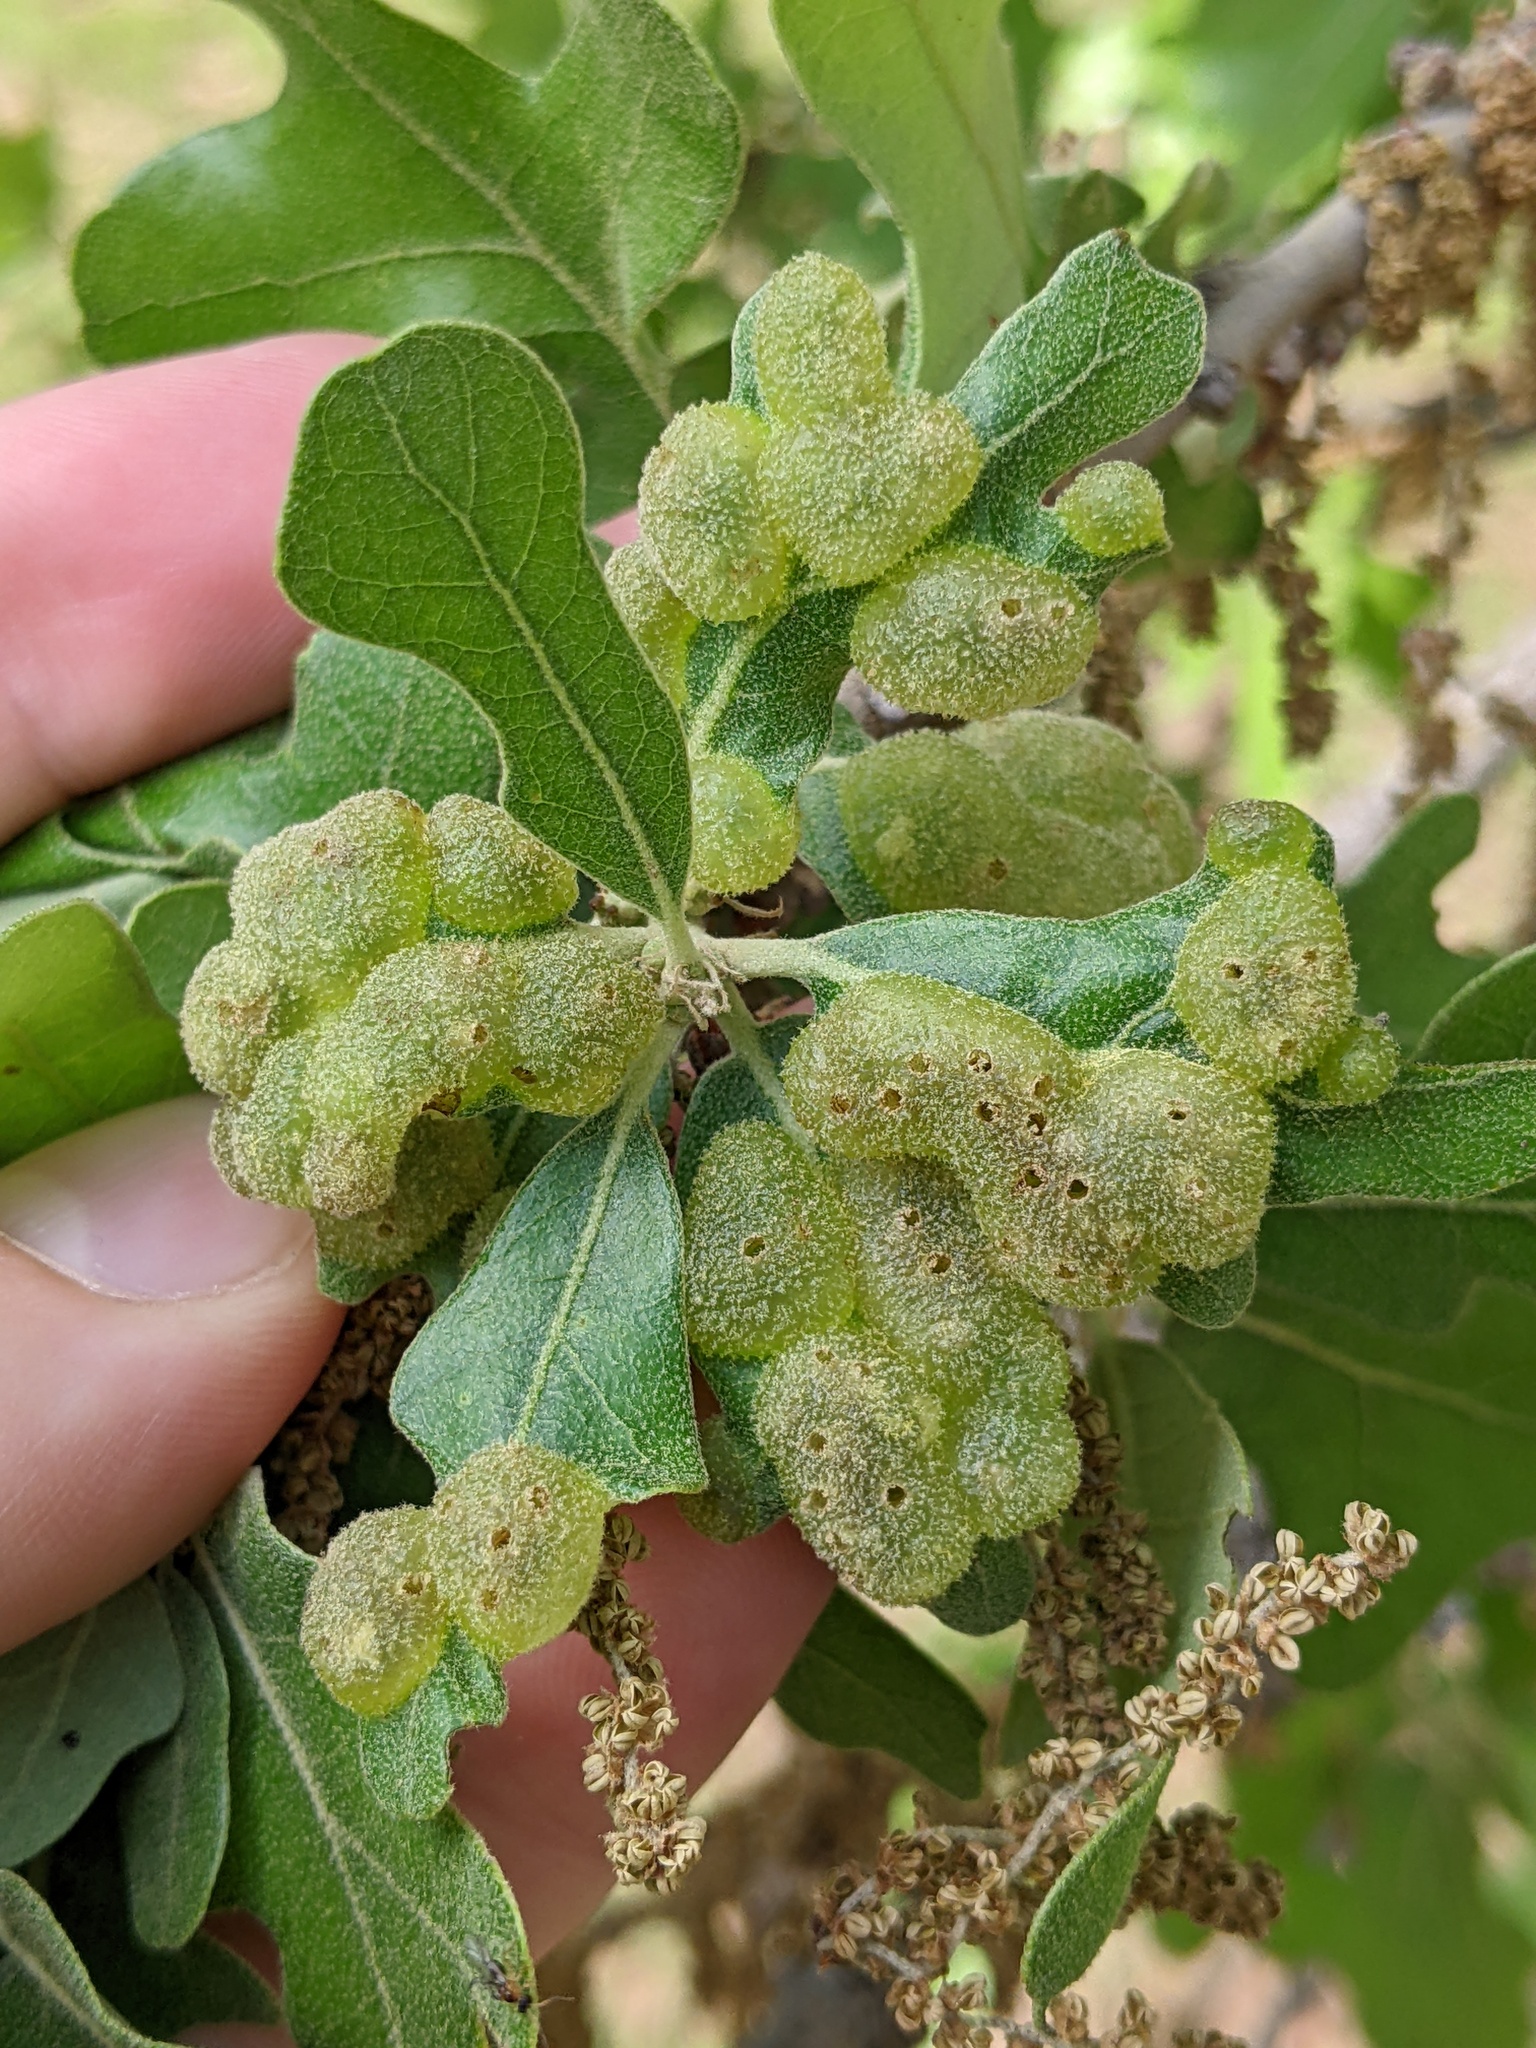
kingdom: Animalia
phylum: Arthropoda
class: Insecta
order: Hymenoptera
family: Cynipidae
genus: Neuroterus
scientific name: Neuroterus quercusirregularis
